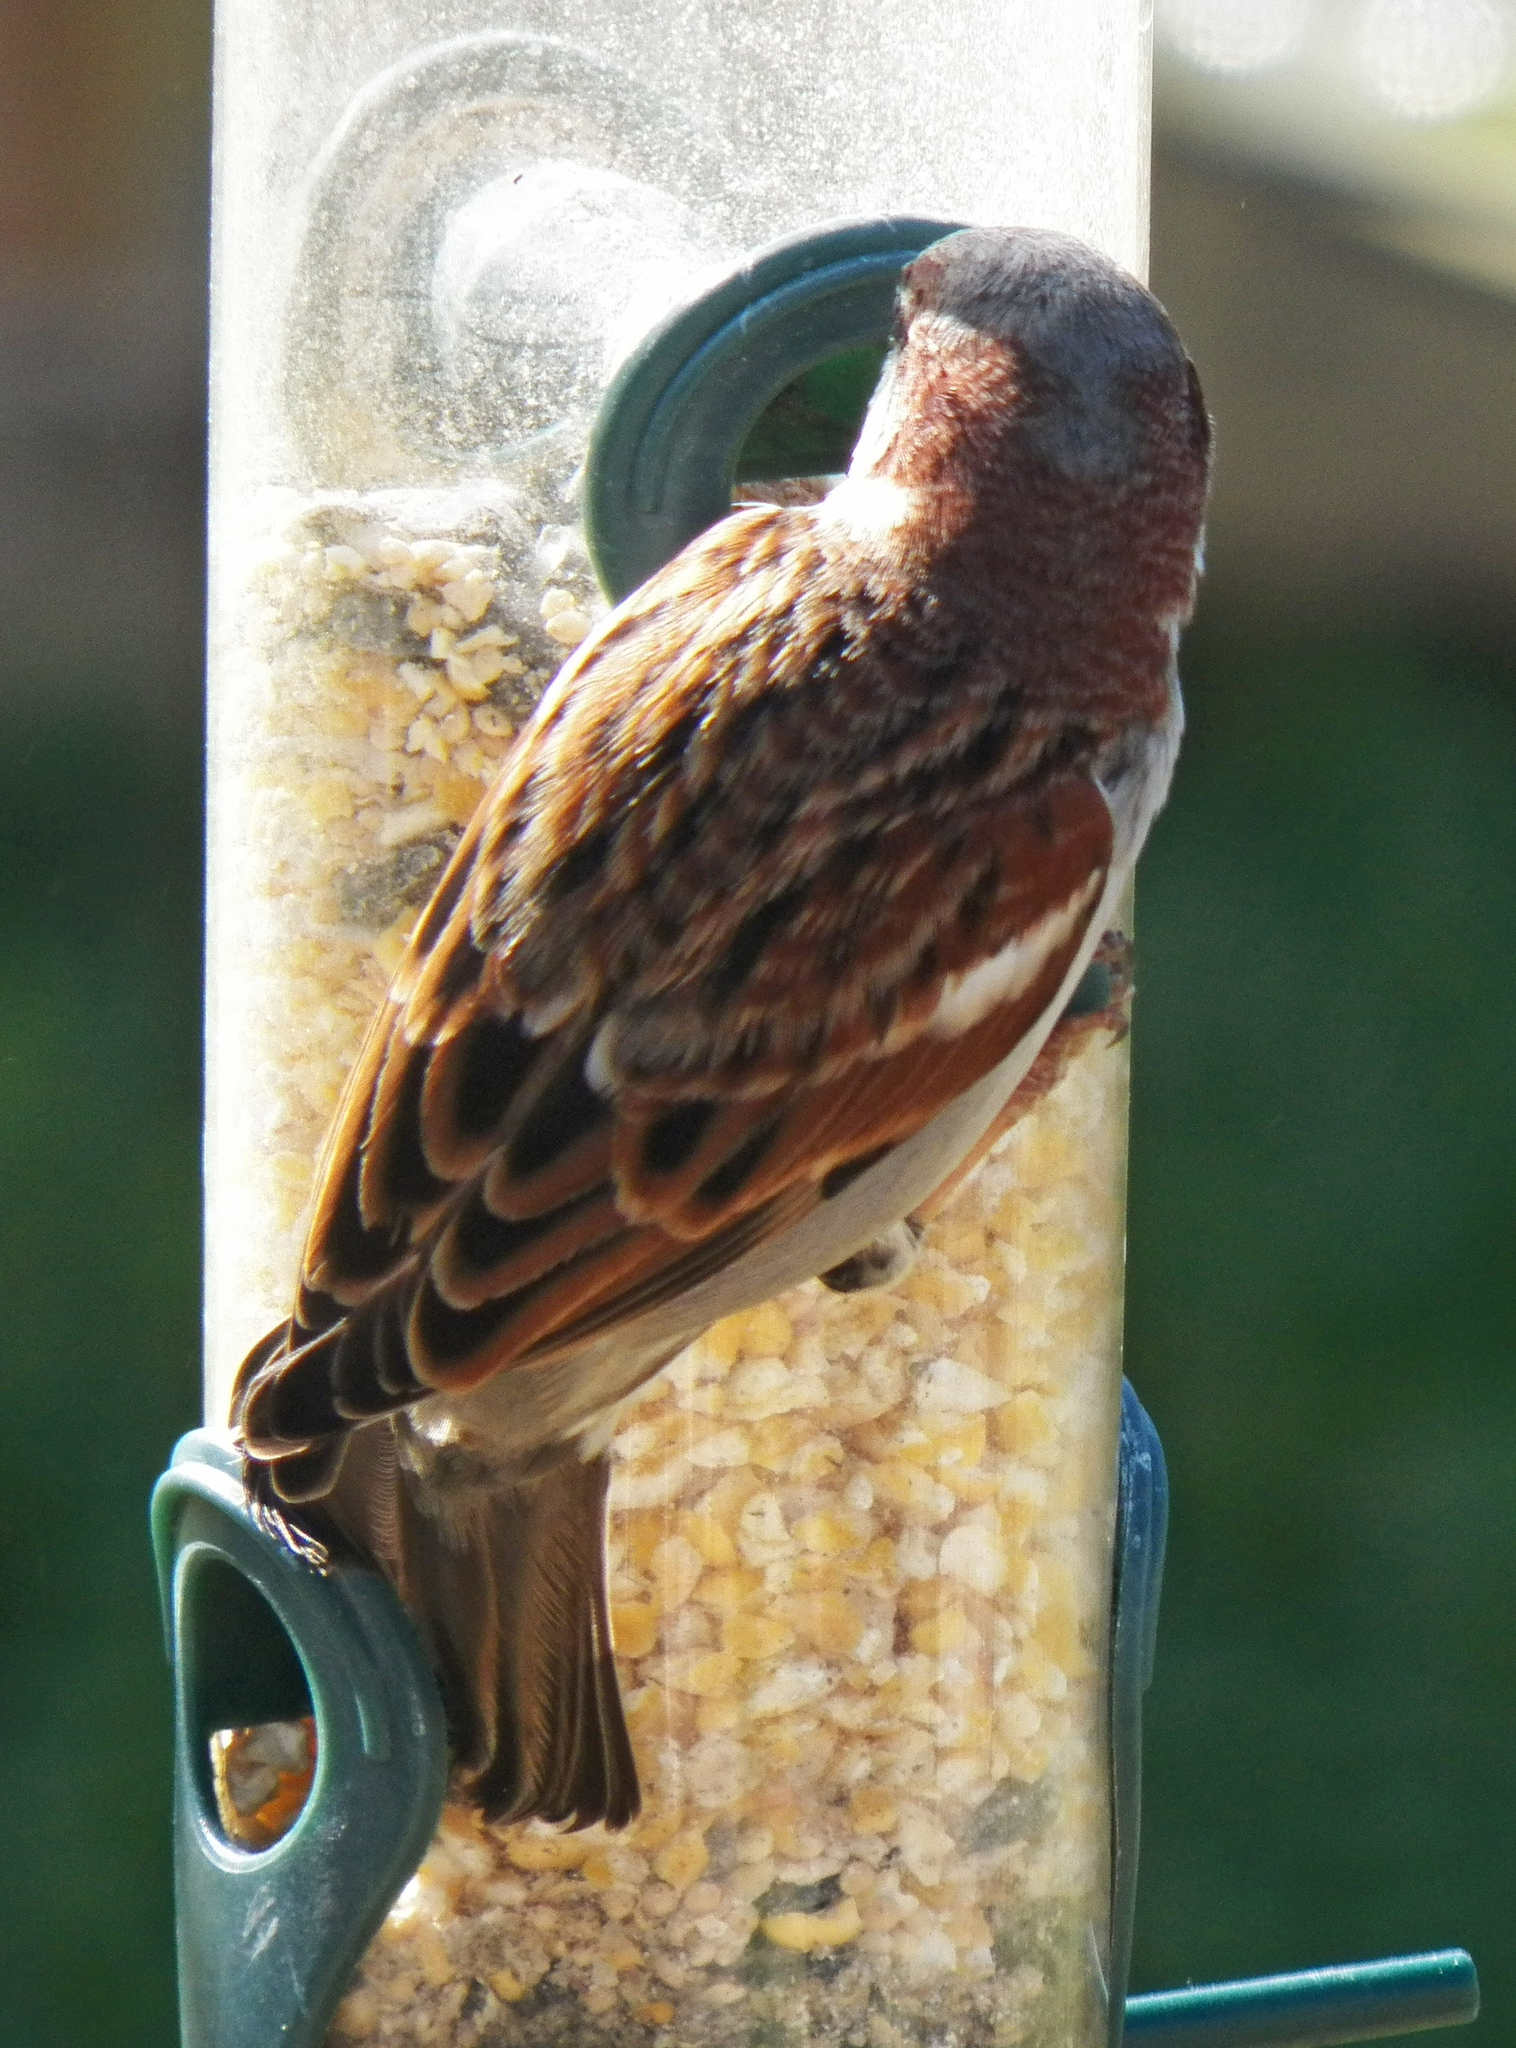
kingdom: Animalia
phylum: Chordata
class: Aves
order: Passeriformes
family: Passeridae
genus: Passer
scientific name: Passer domesticus
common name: House sparrow
